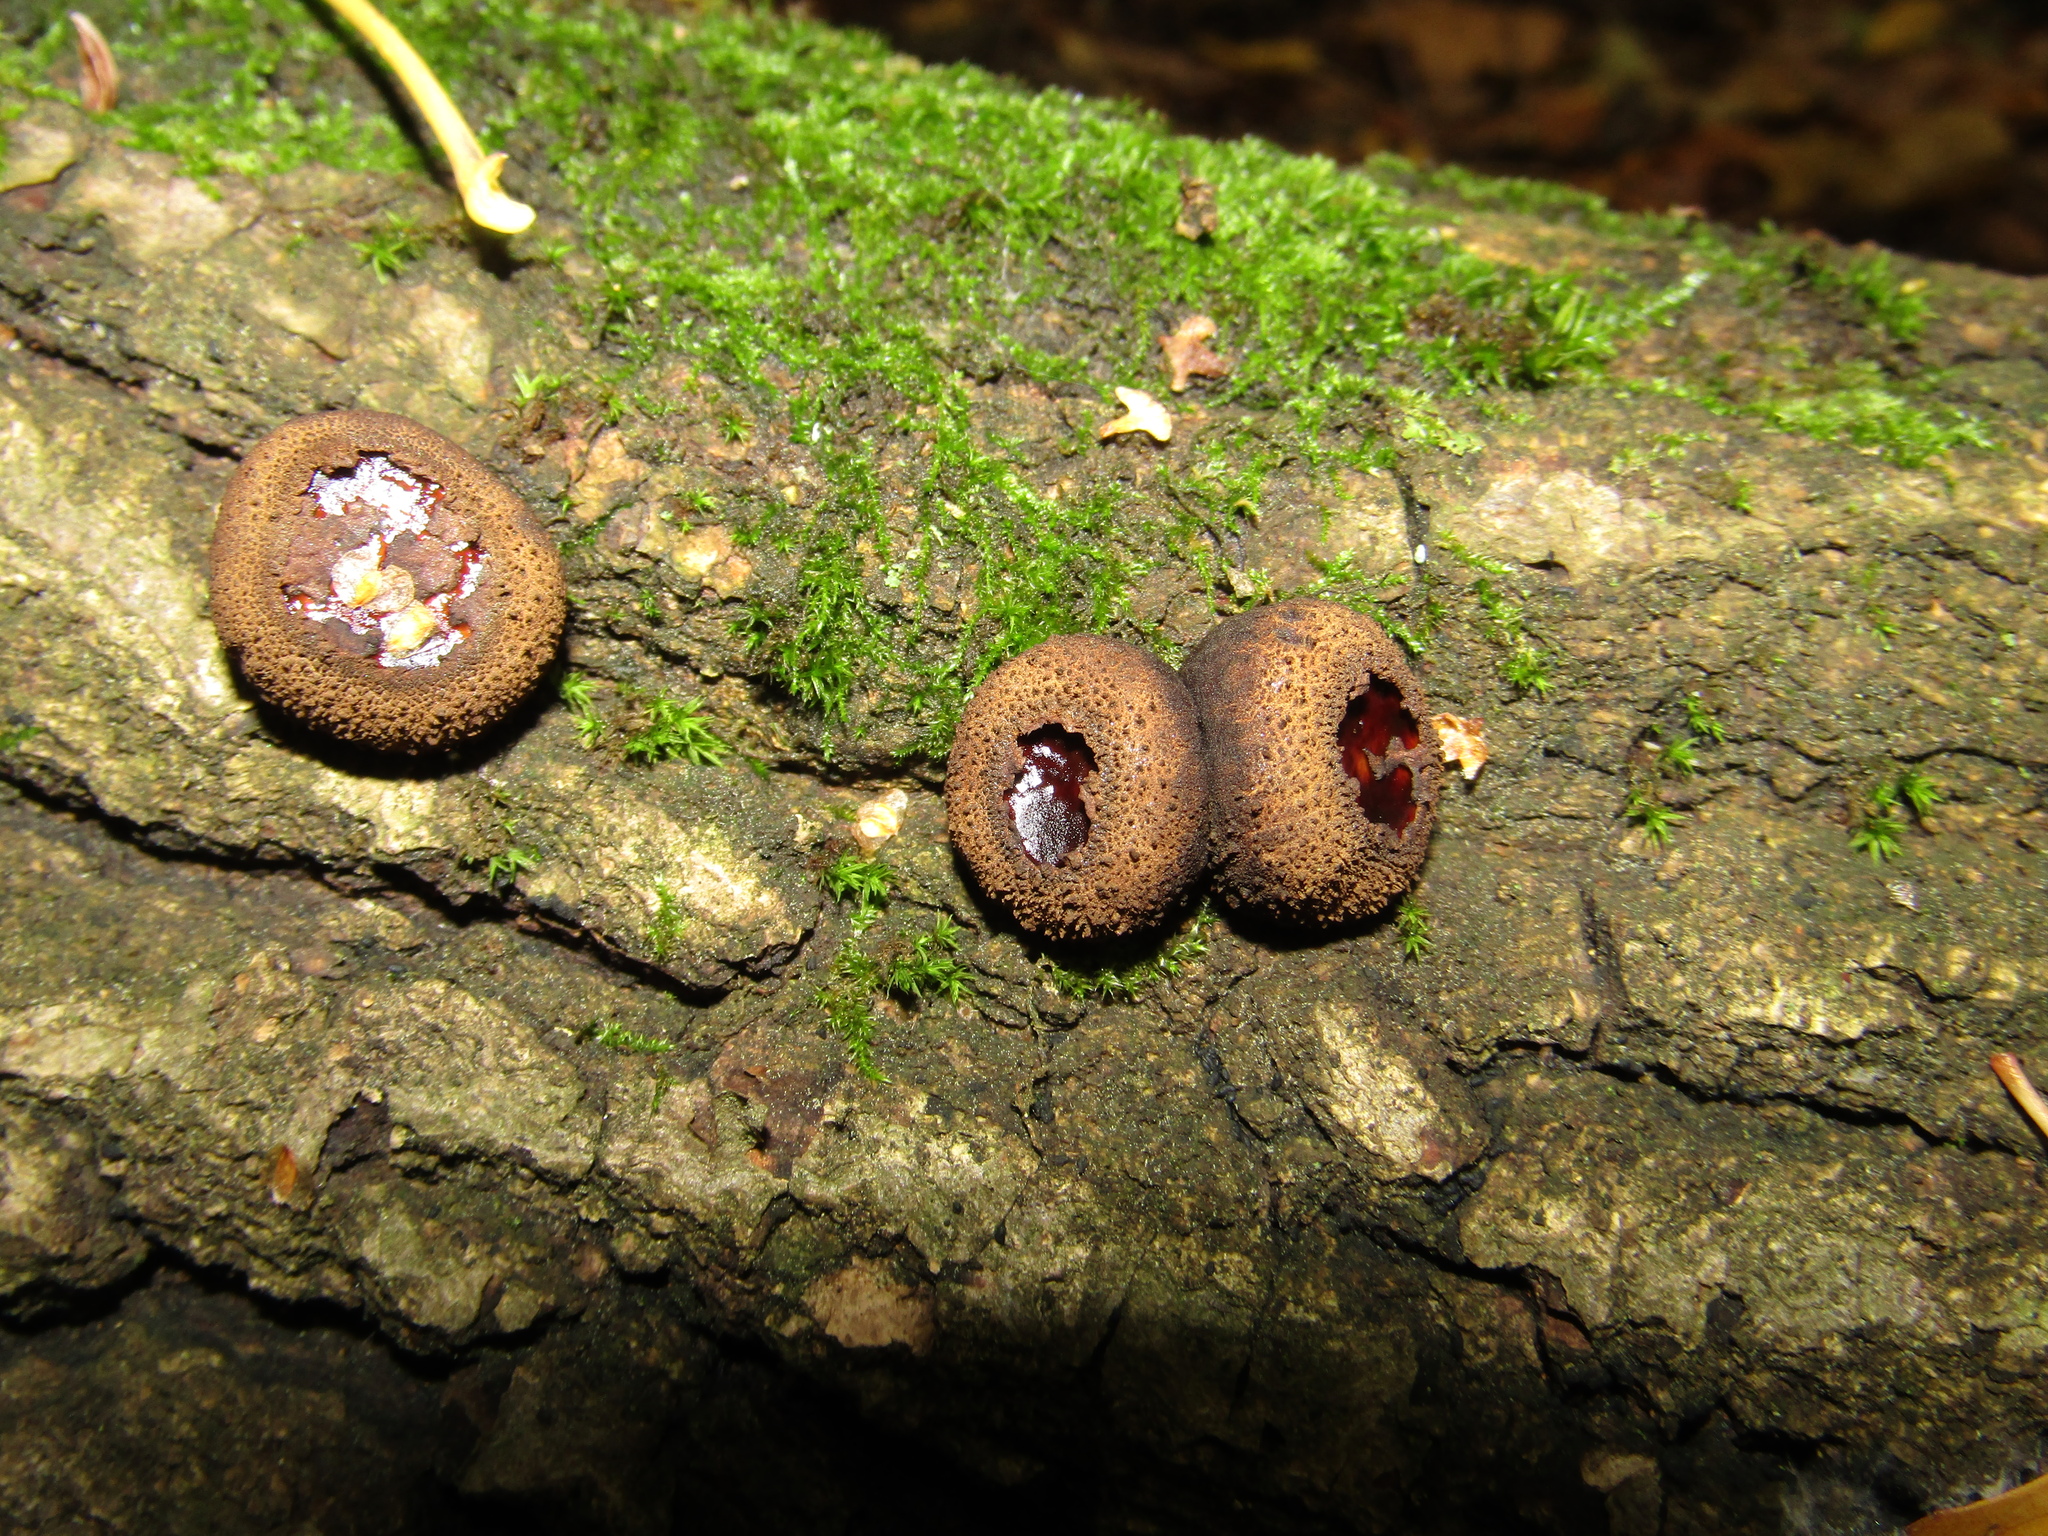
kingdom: Fungi
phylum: Ascomycota
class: Leotiomycetes
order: Phacidiales
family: Phacidiaceae
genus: Bulgaria
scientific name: Bulgaria inquinans
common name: Black bulgar
